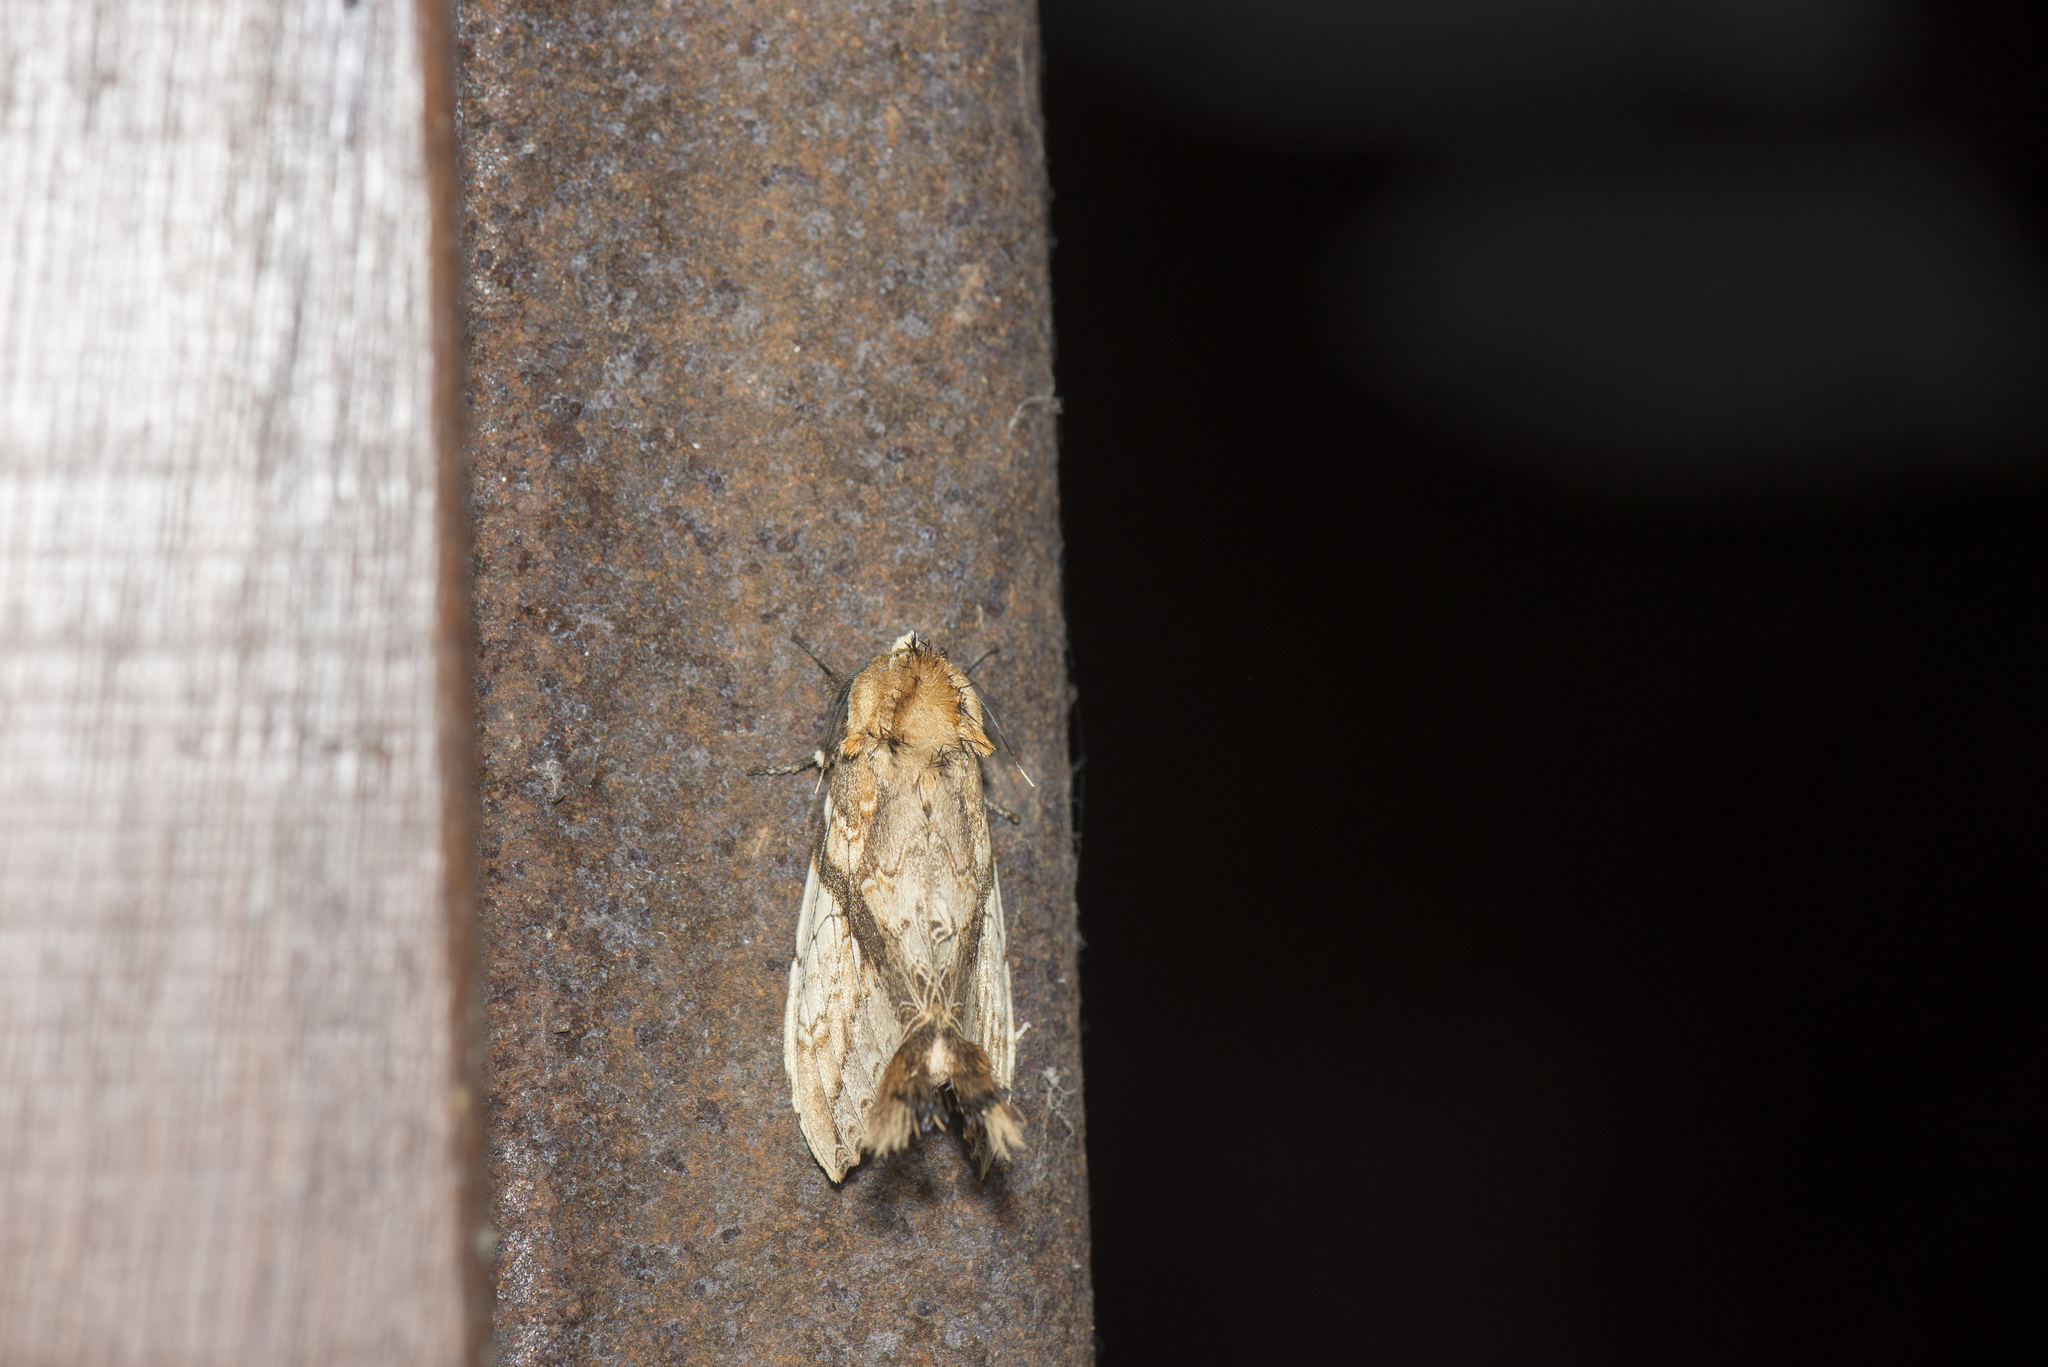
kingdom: Animalia
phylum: Arthropoda
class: Insecta
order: Lepidoptera
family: Notodontidae
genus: Dudusa
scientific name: Dudusa nobilis
